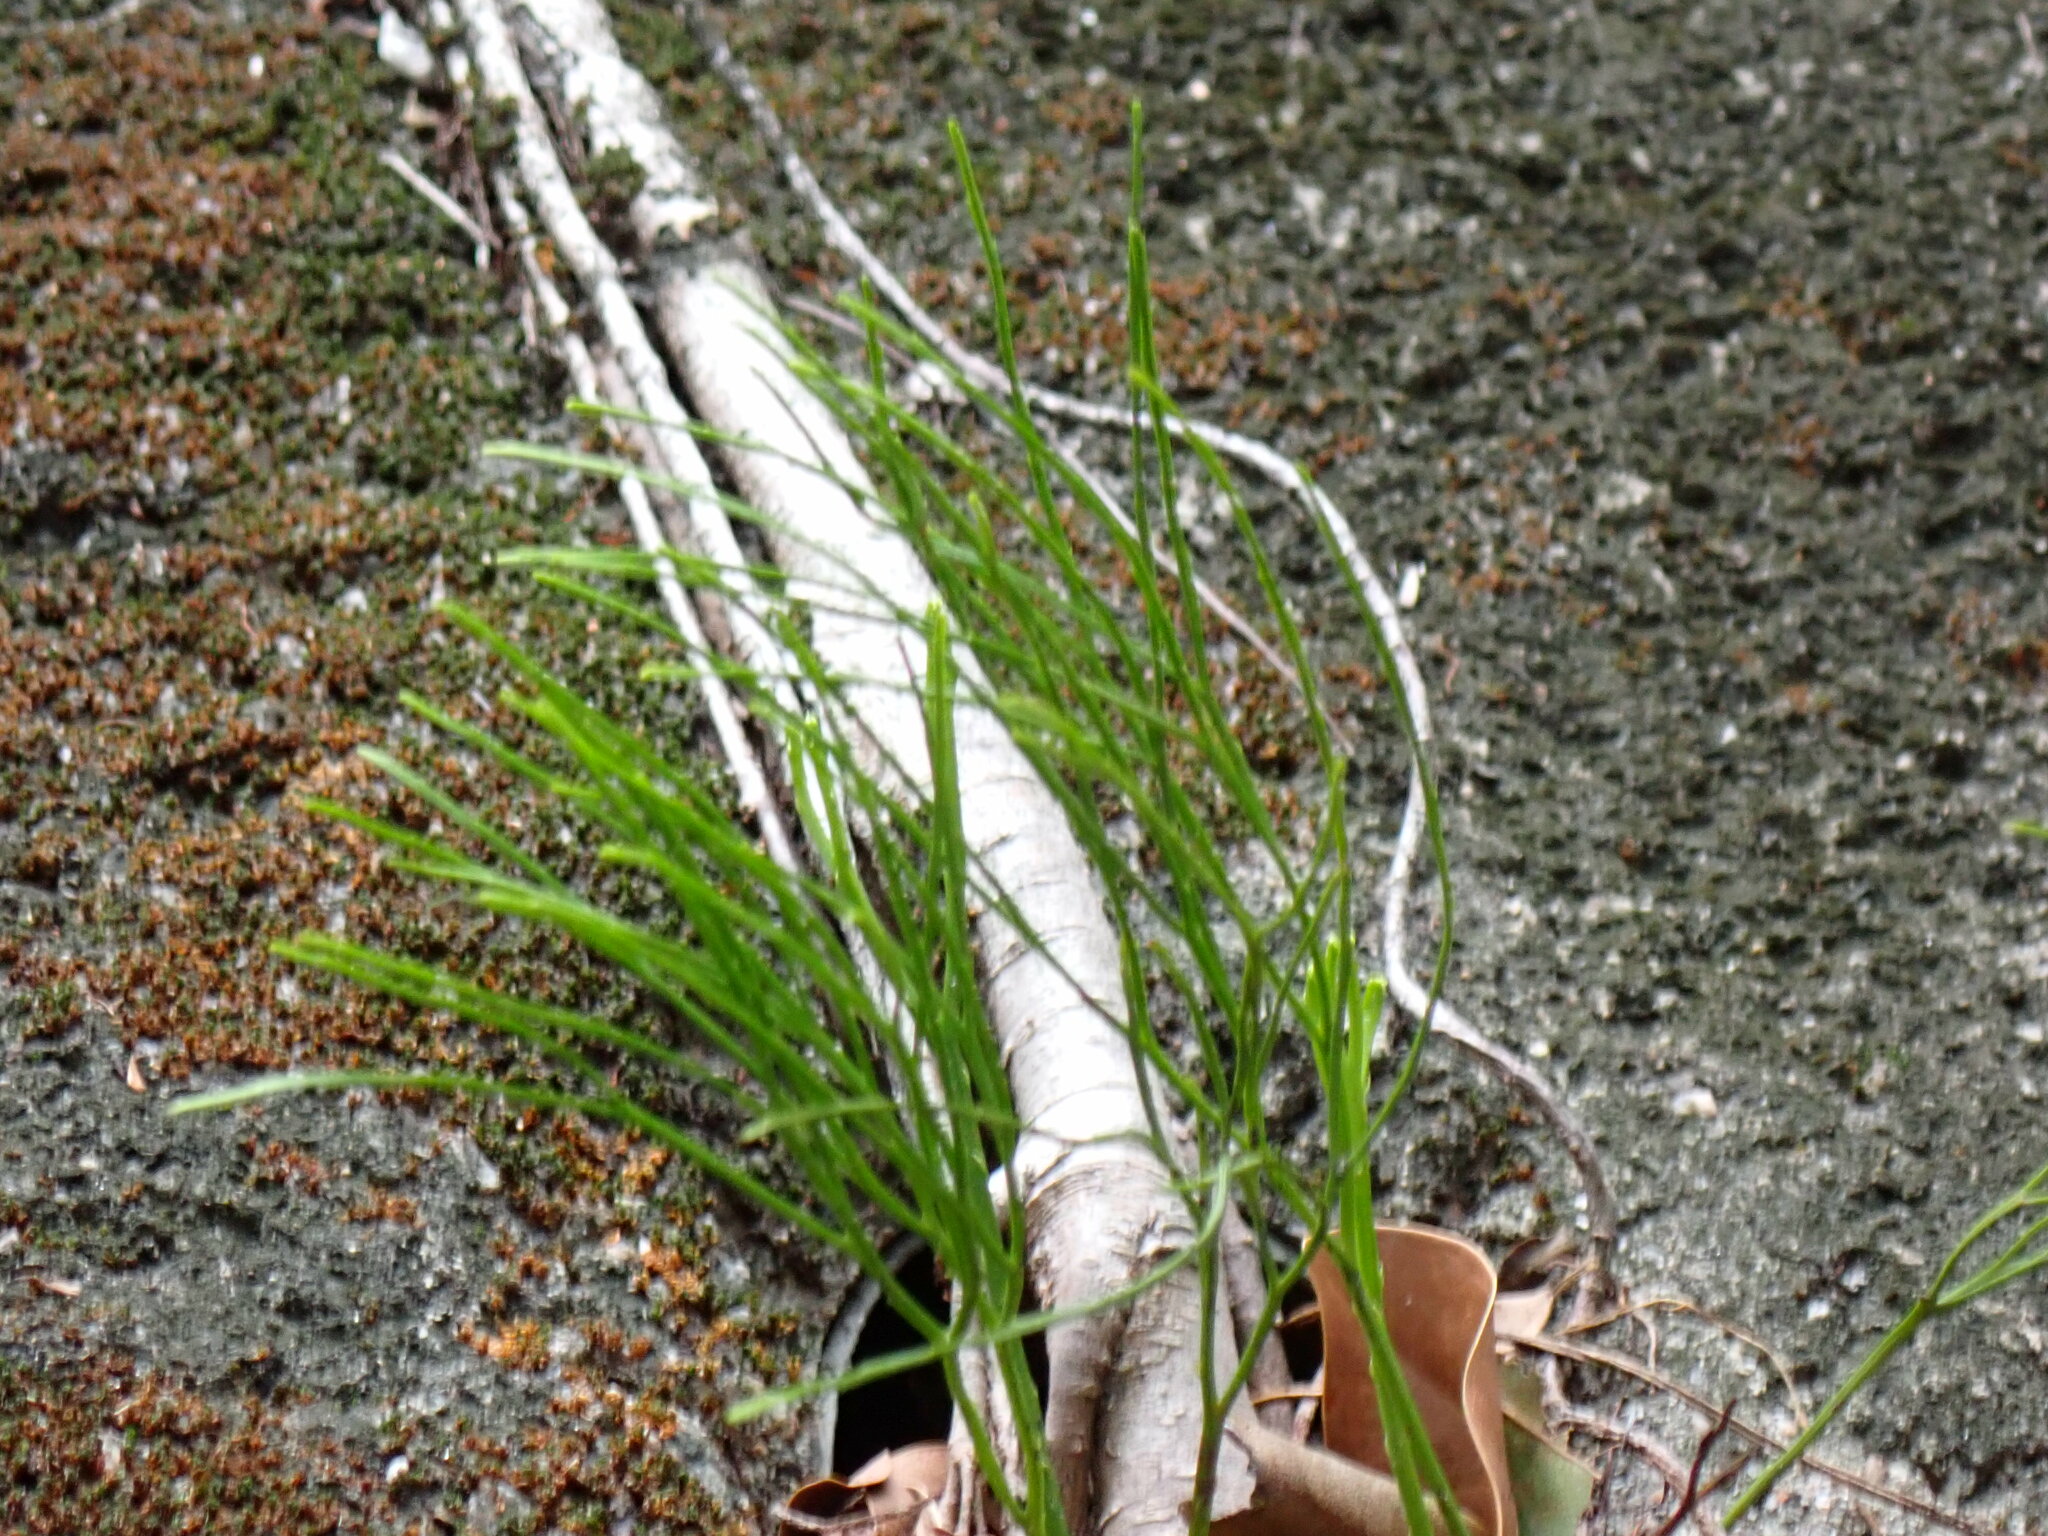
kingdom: Plantae
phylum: Tracheophyta
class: Polypodiopsida
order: Psilotales
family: Psilotaceae
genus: Psilotum
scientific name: Psilotum nudum
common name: Skeleton fork fern
